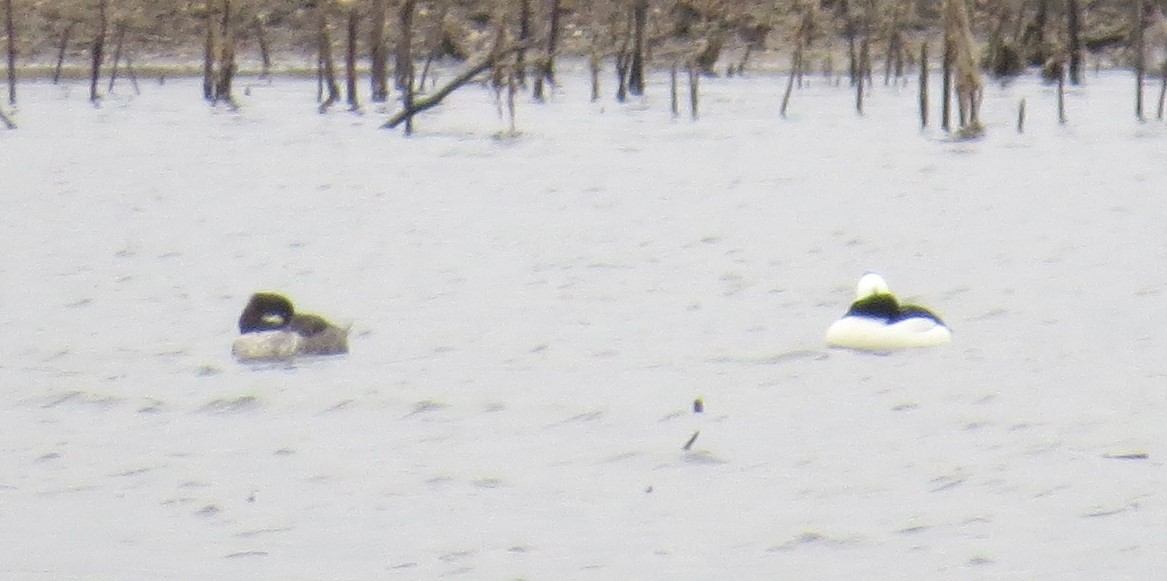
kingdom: Animalia
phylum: Chordata
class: Aves
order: Anseriformes
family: Anatidae
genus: Bucephala
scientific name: Bucephala albeola
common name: Bufflehead
